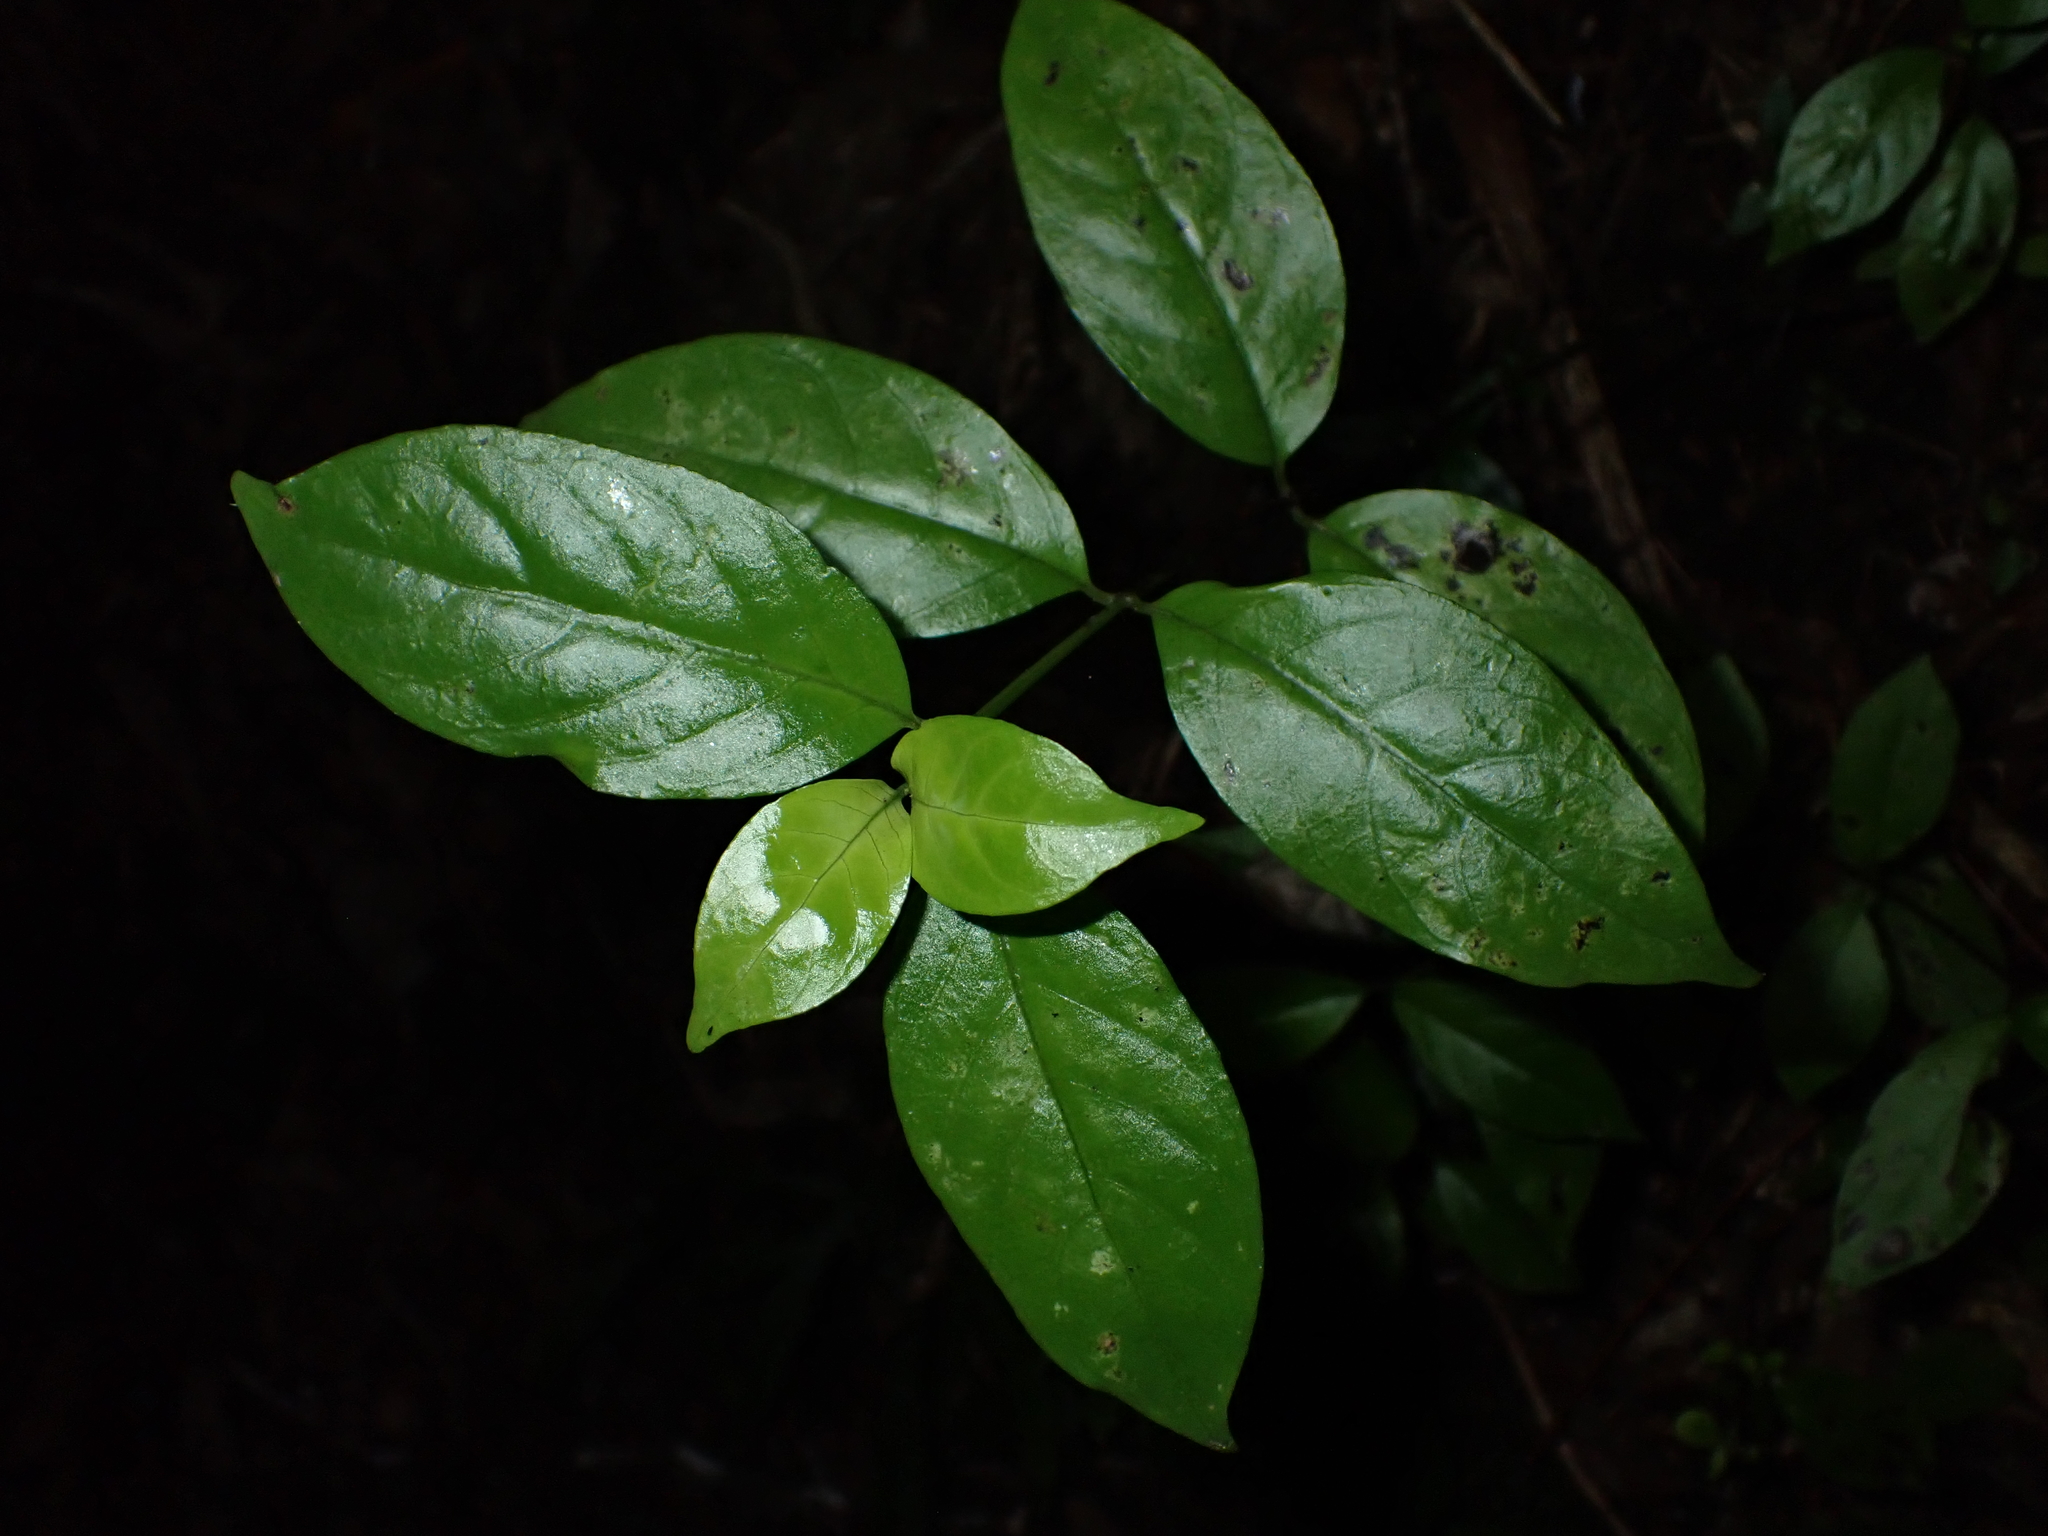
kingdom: Plantae
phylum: Tracheophyta
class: Magnoliopsida
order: Gentianales
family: Loganiaceae
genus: Geniostoma
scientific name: Geniostoma ligustrifolium
